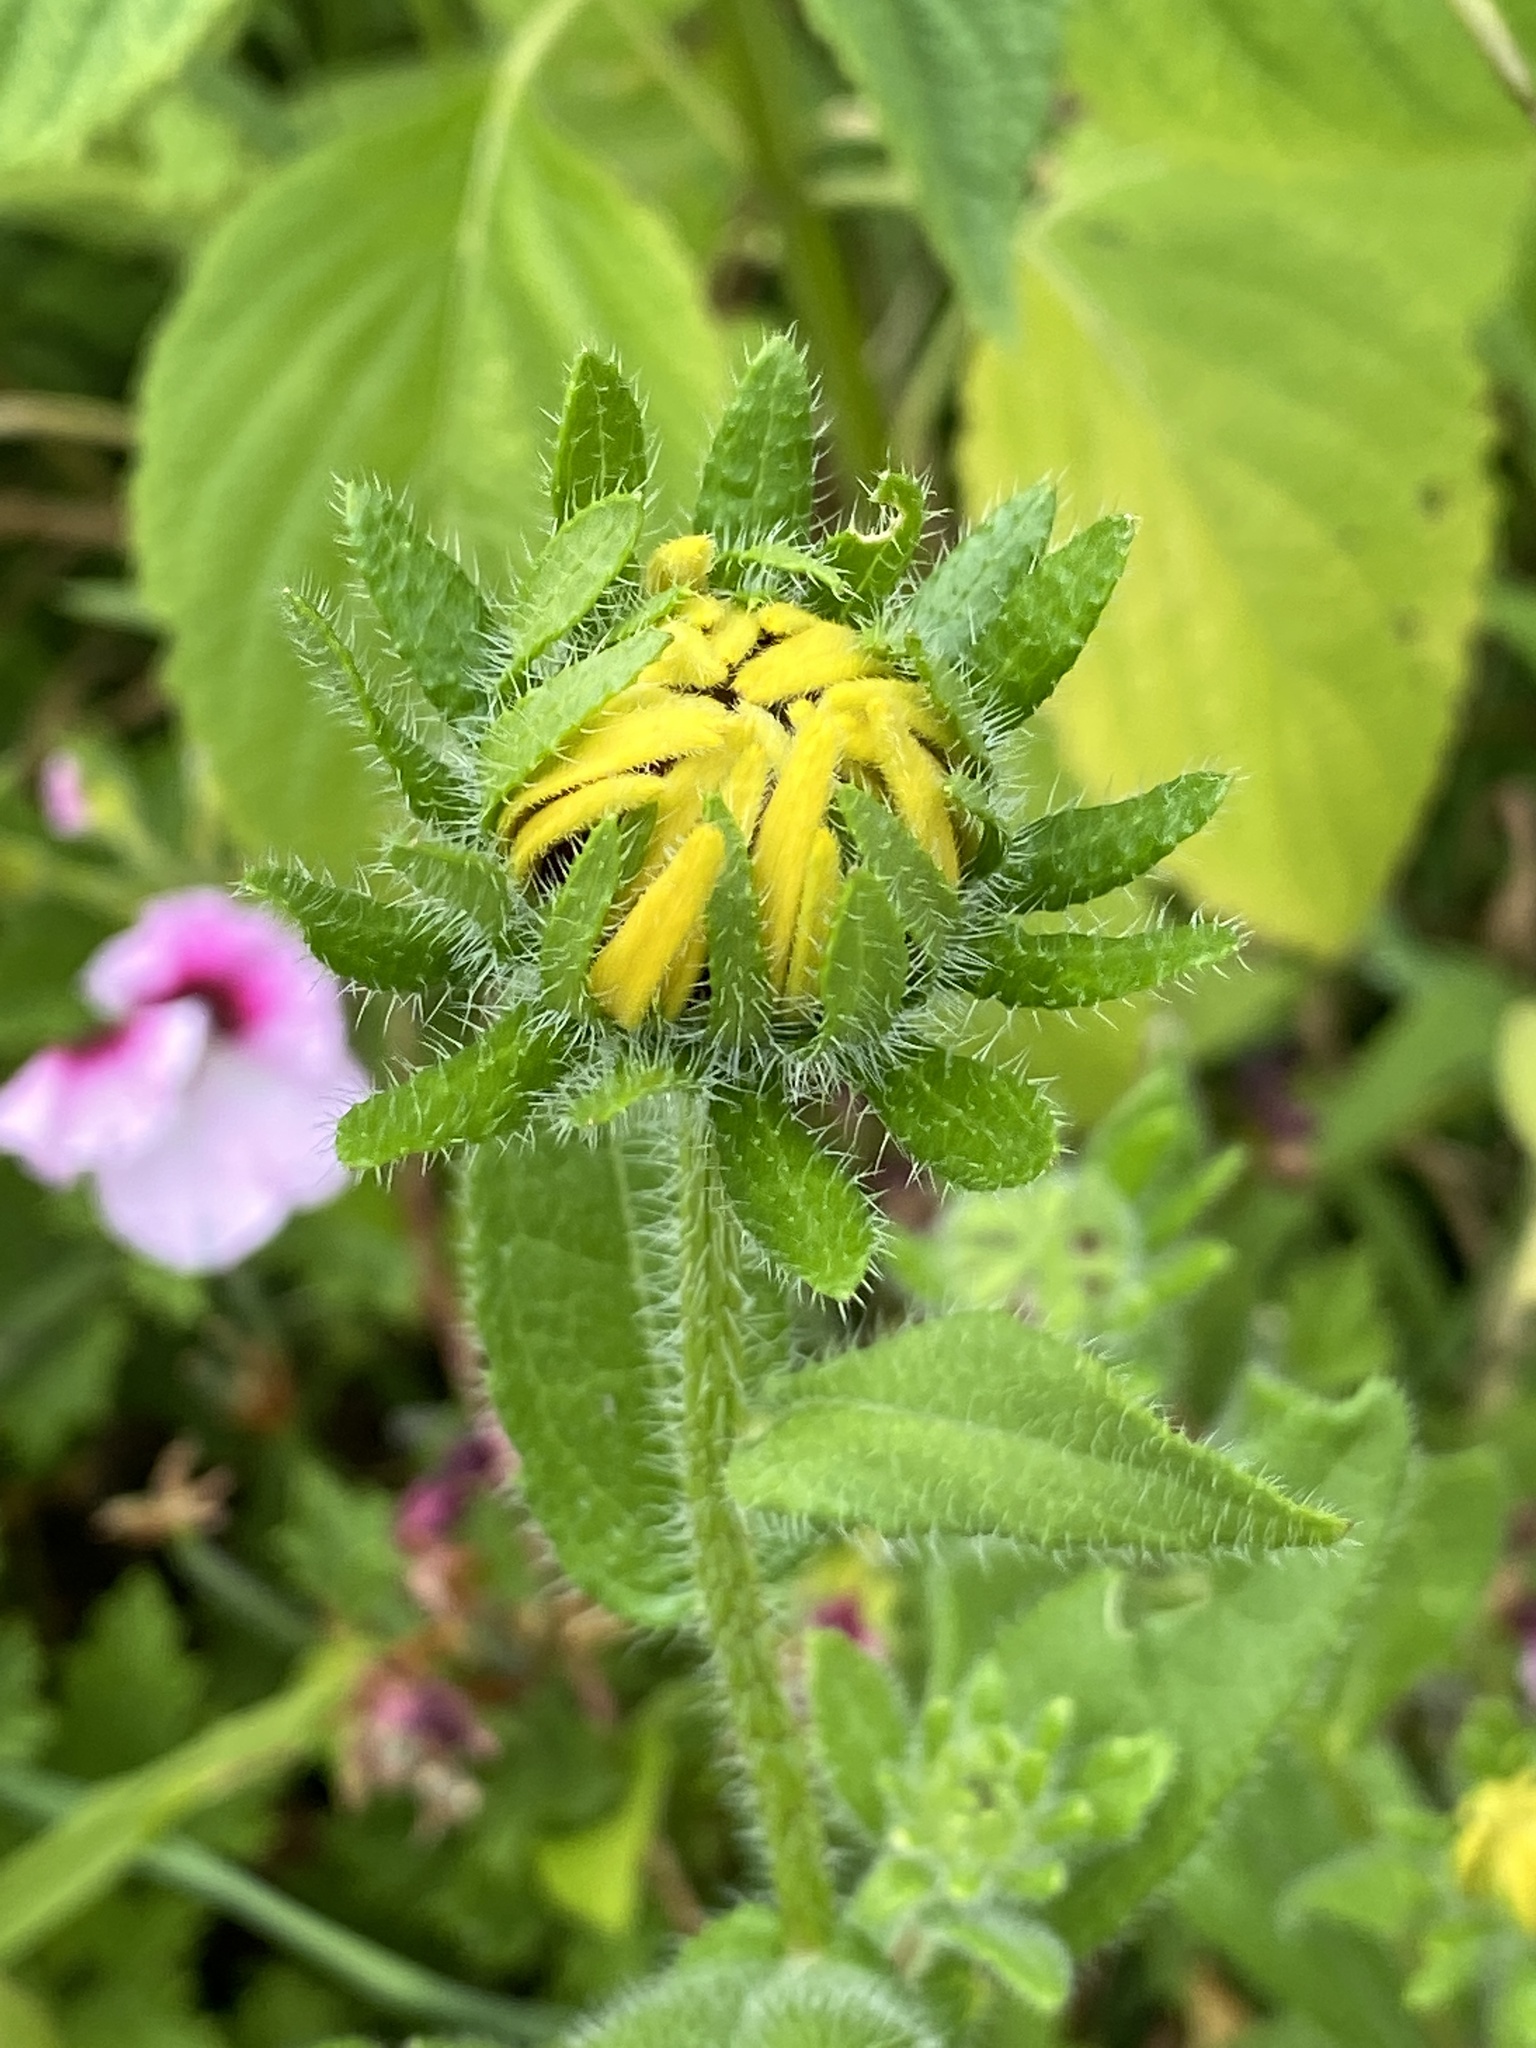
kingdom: Plantae
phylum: Tracheophyta
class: Magnoliopsida
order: Asterales
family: Asteraceae
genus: Rudbeckia
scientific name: Rudbeckia hirta
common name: Black-eyed-susan
